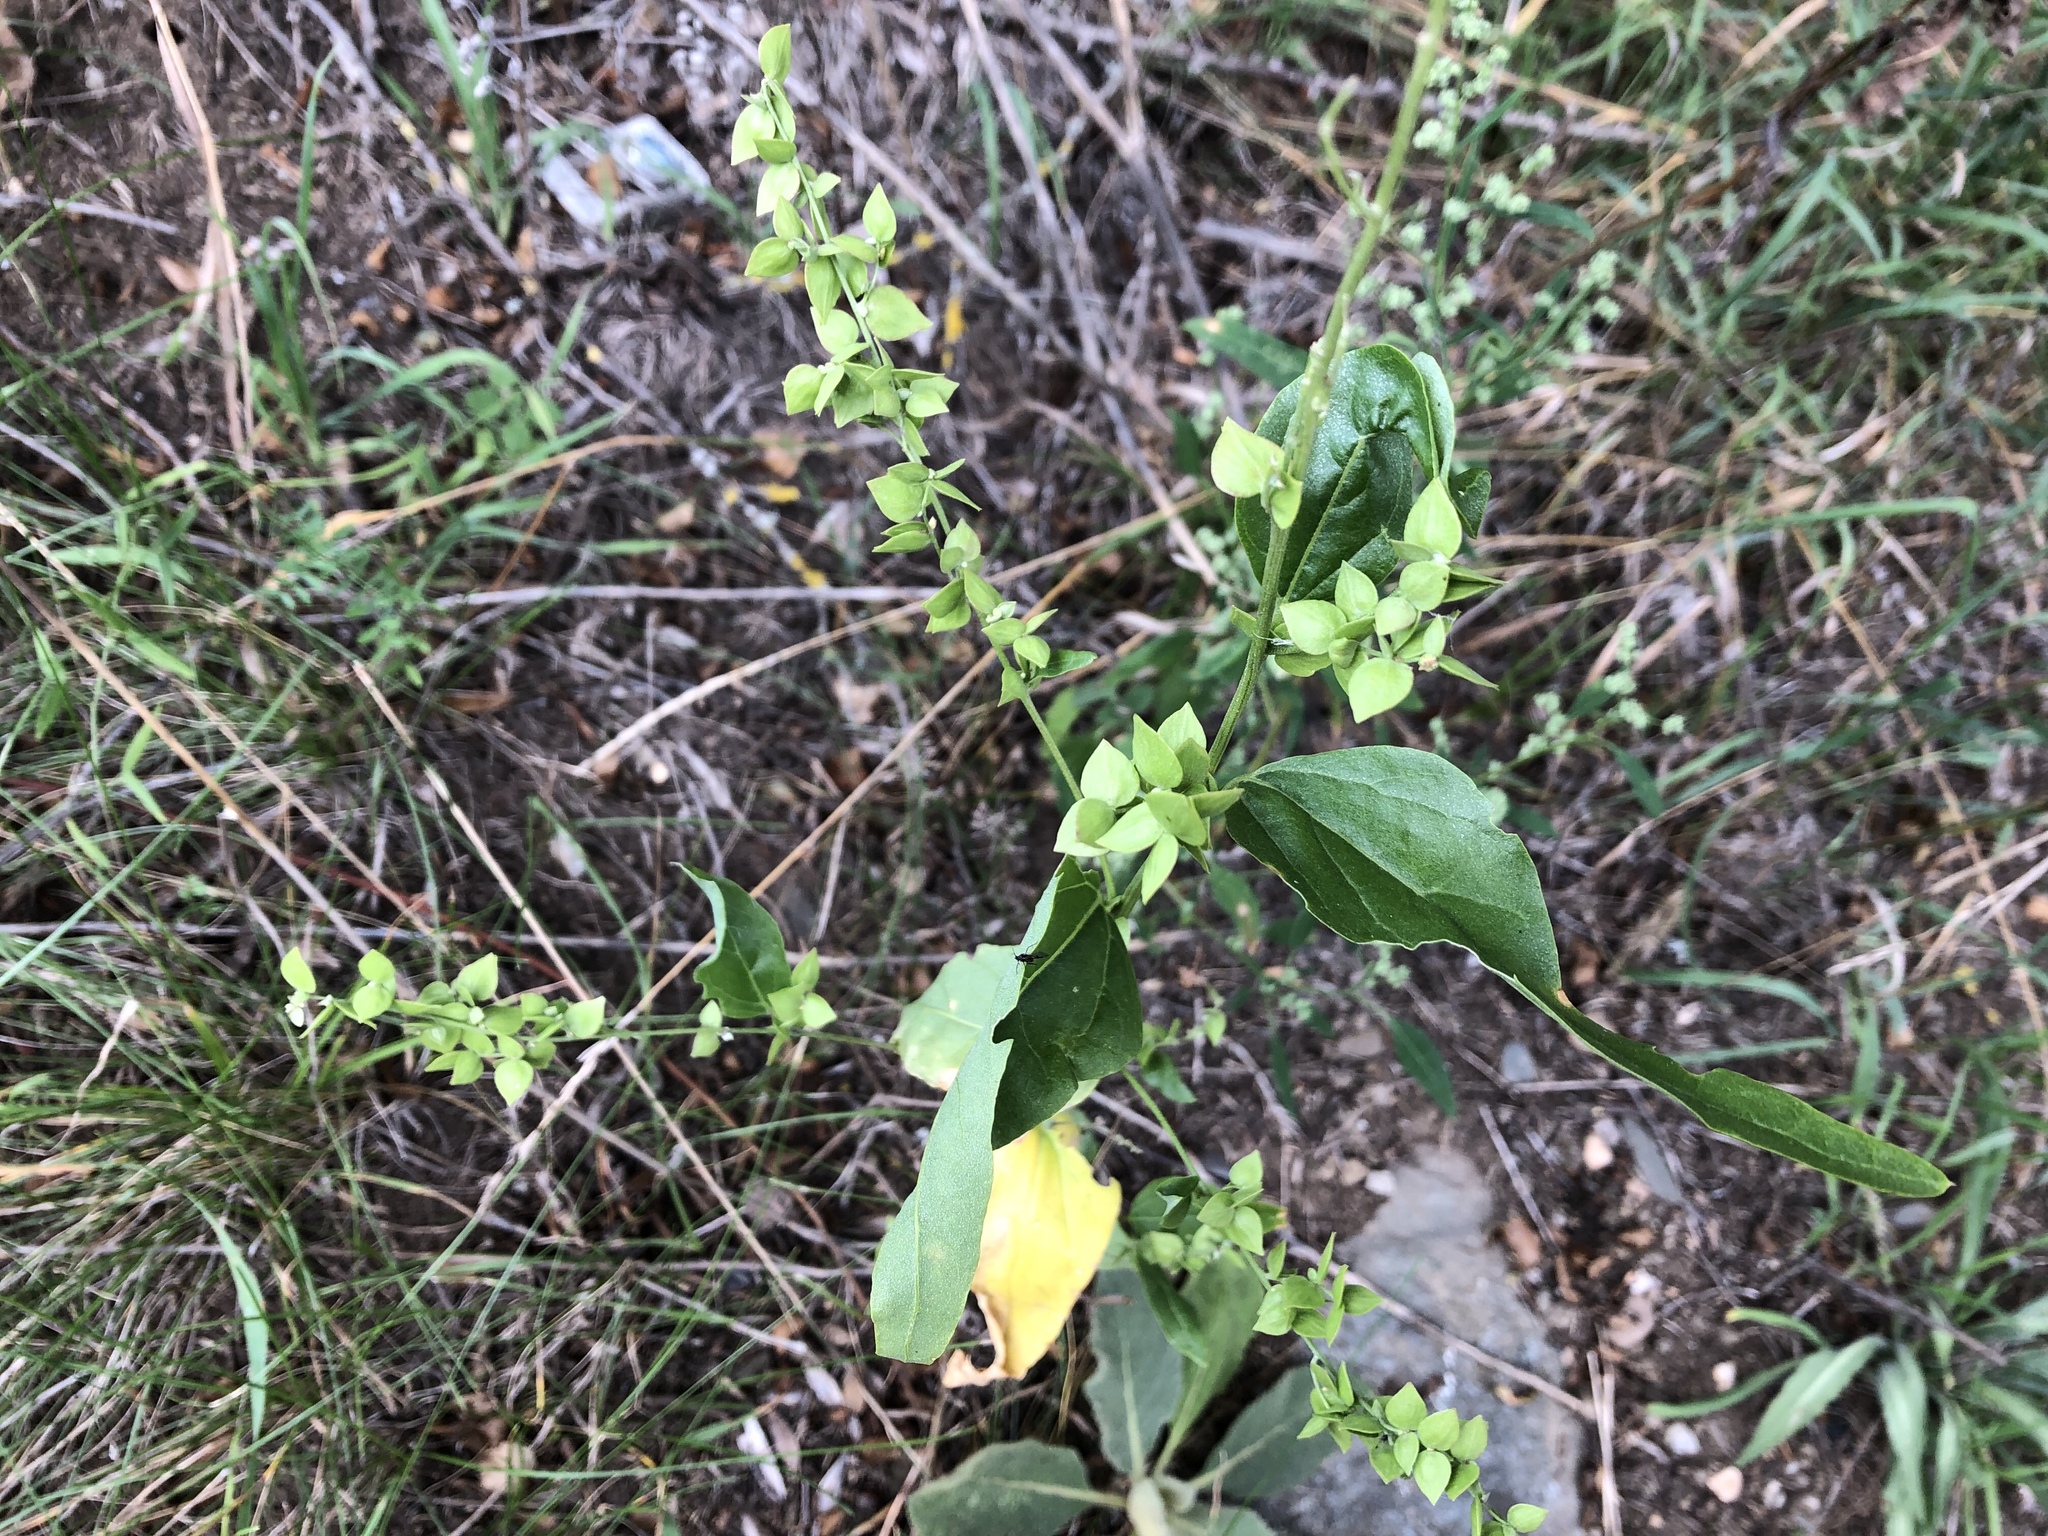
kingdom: Plantae
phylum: Tracheophyta
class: Magnoliopsida
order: Caryophyllales
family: Amaranthaceae
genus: Atriplex
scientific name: Atriplex sagittata
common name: Purple orache
